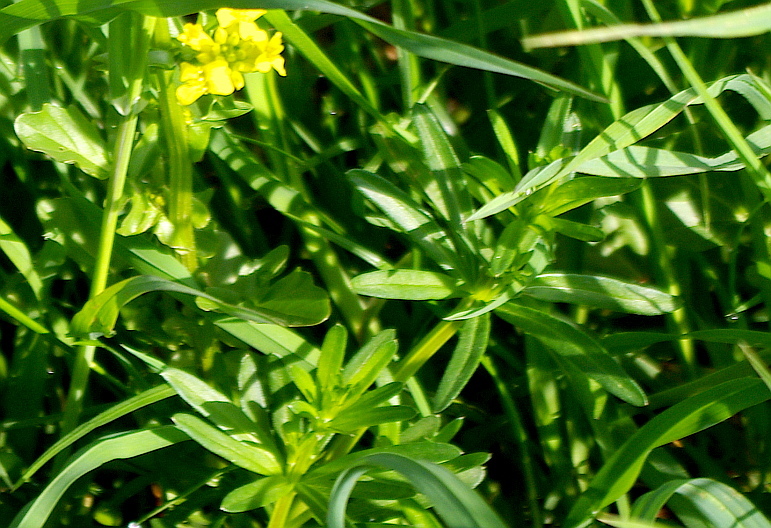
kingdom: Plantae
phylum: Tracheophyta
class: Magnoliopsida
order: Gentianales
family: Rubiaceae
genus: Galium
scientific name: Galium mollugo
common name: Hedge bedstraw
